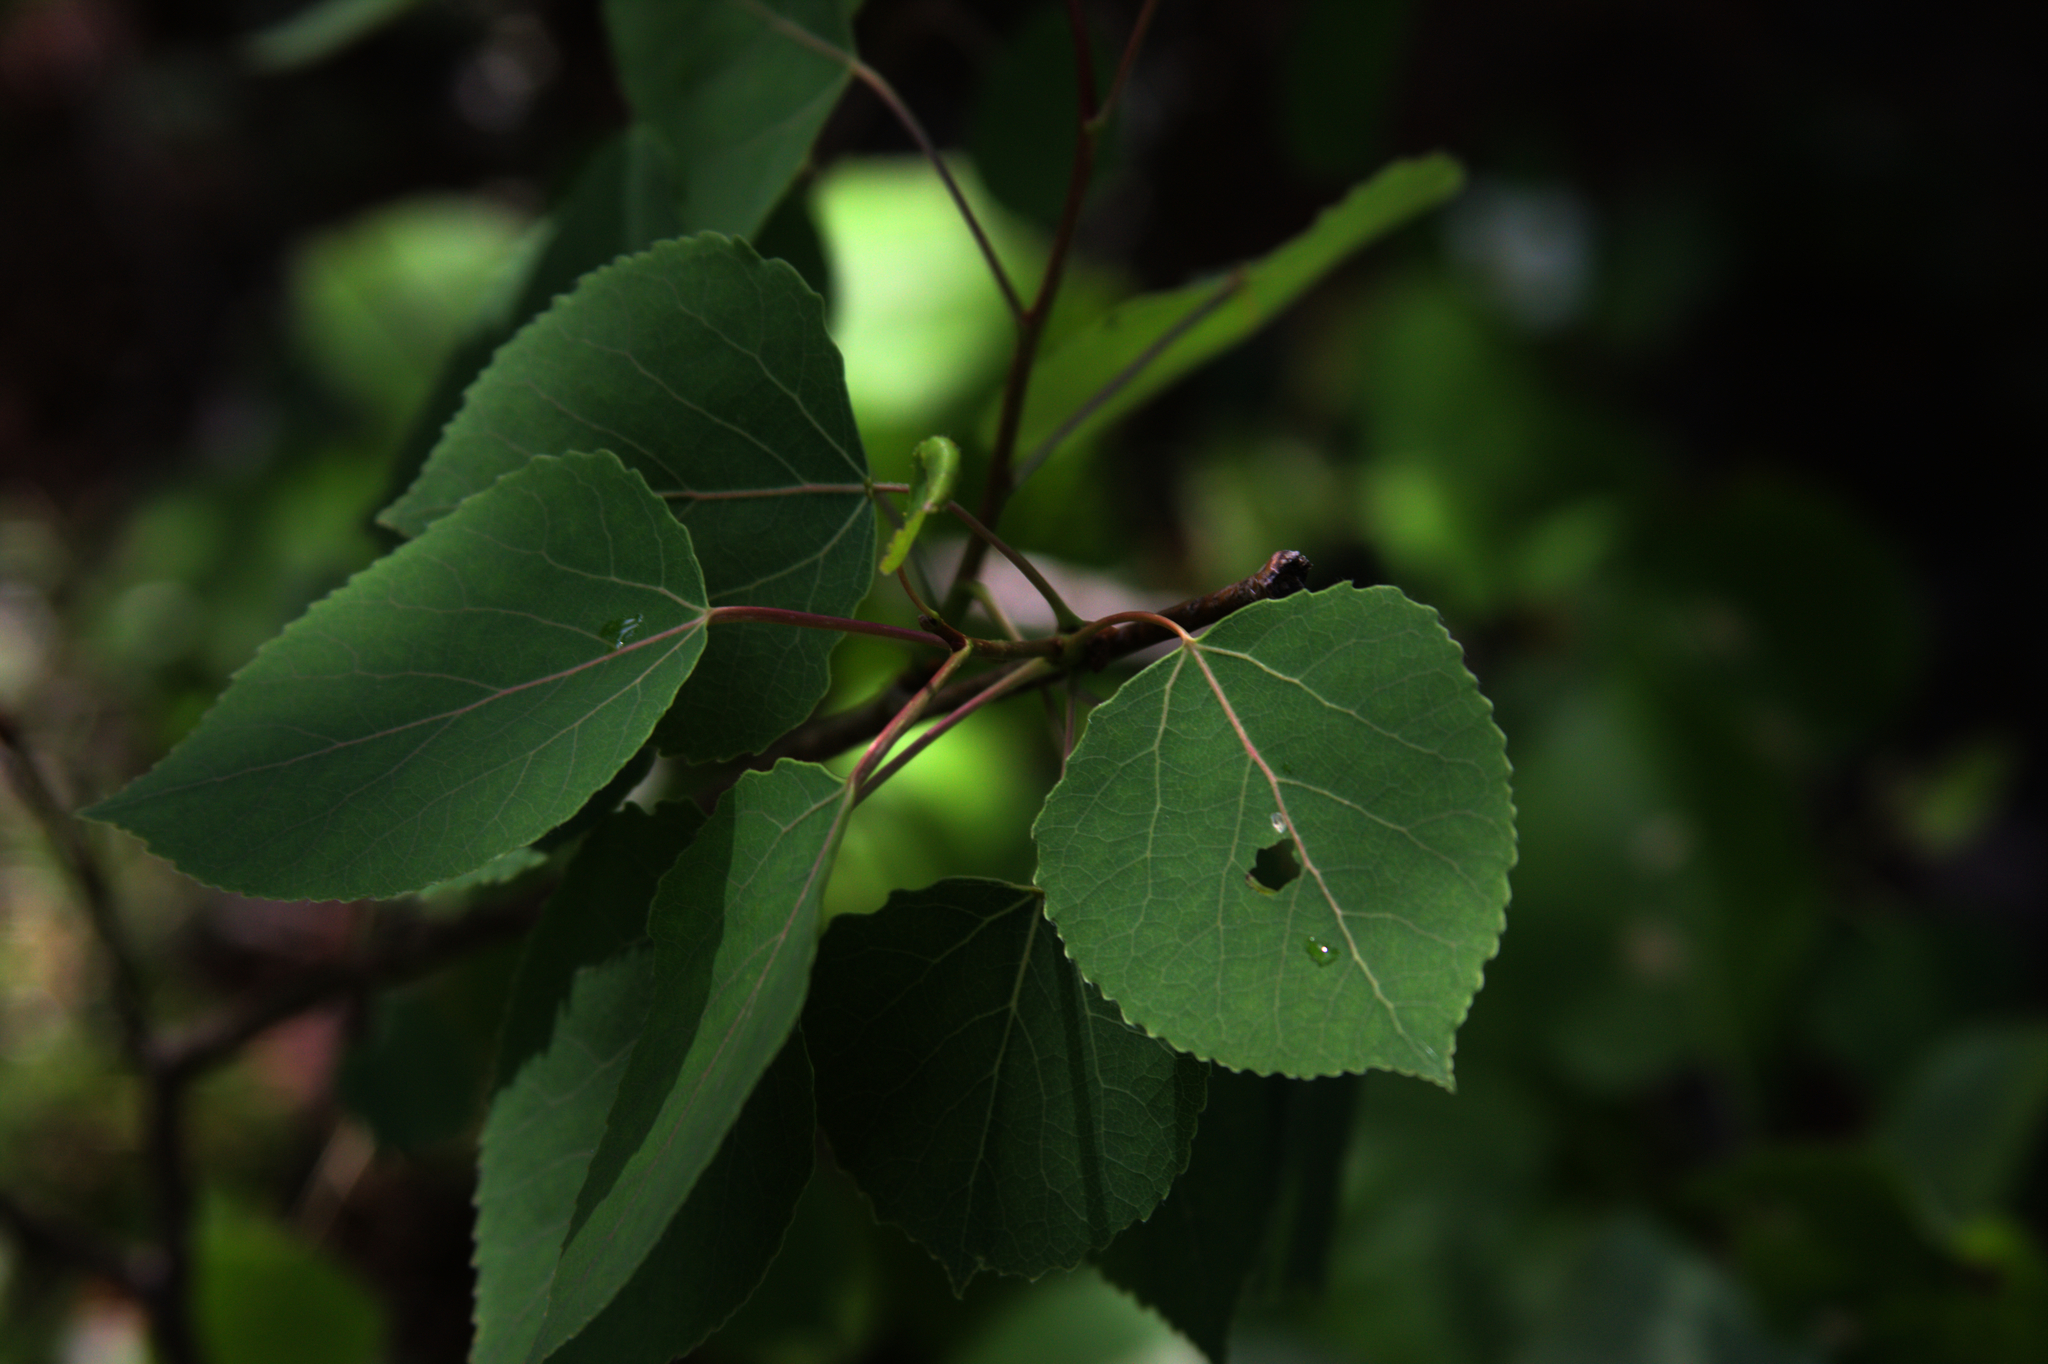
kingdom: Plantae
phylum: Tracheophyta
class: Magnoliopsida
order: Malpighiales
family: Salicaceae
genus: Populus
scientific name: Populus tremuloides
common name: Quaking aspen
